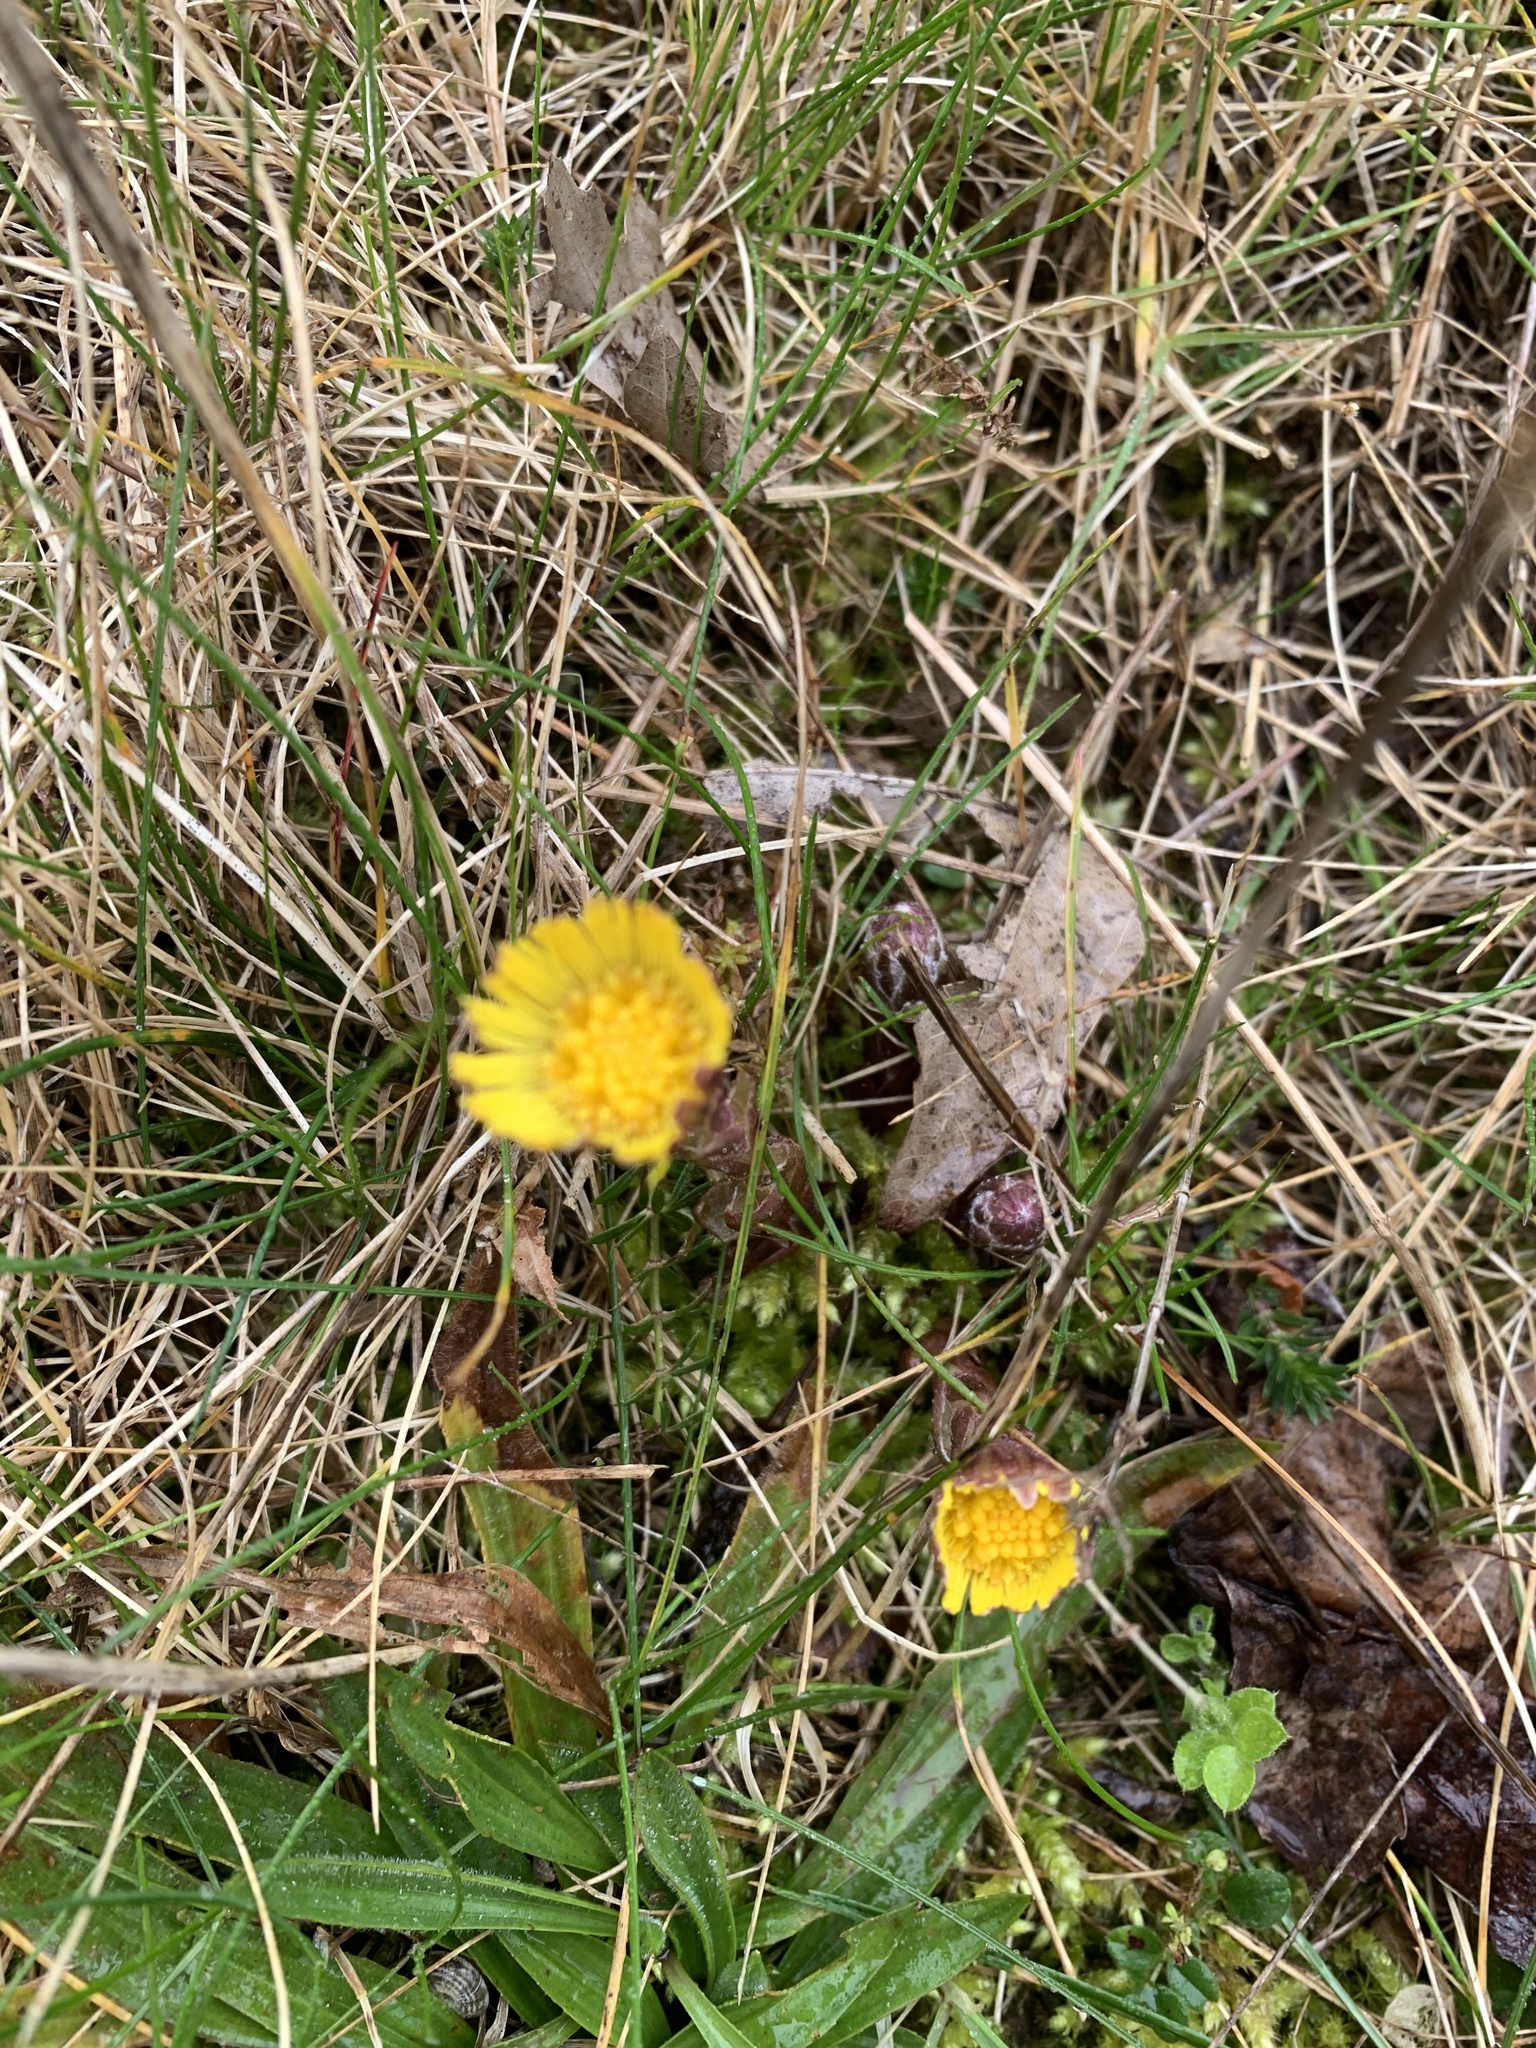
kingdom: Plantae
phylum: Tracheophyta
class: Magnoliopsida
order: Asterales
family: Asteraceae
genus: Tussilago
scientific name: Tussilago farfara
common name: Coltsfoot
